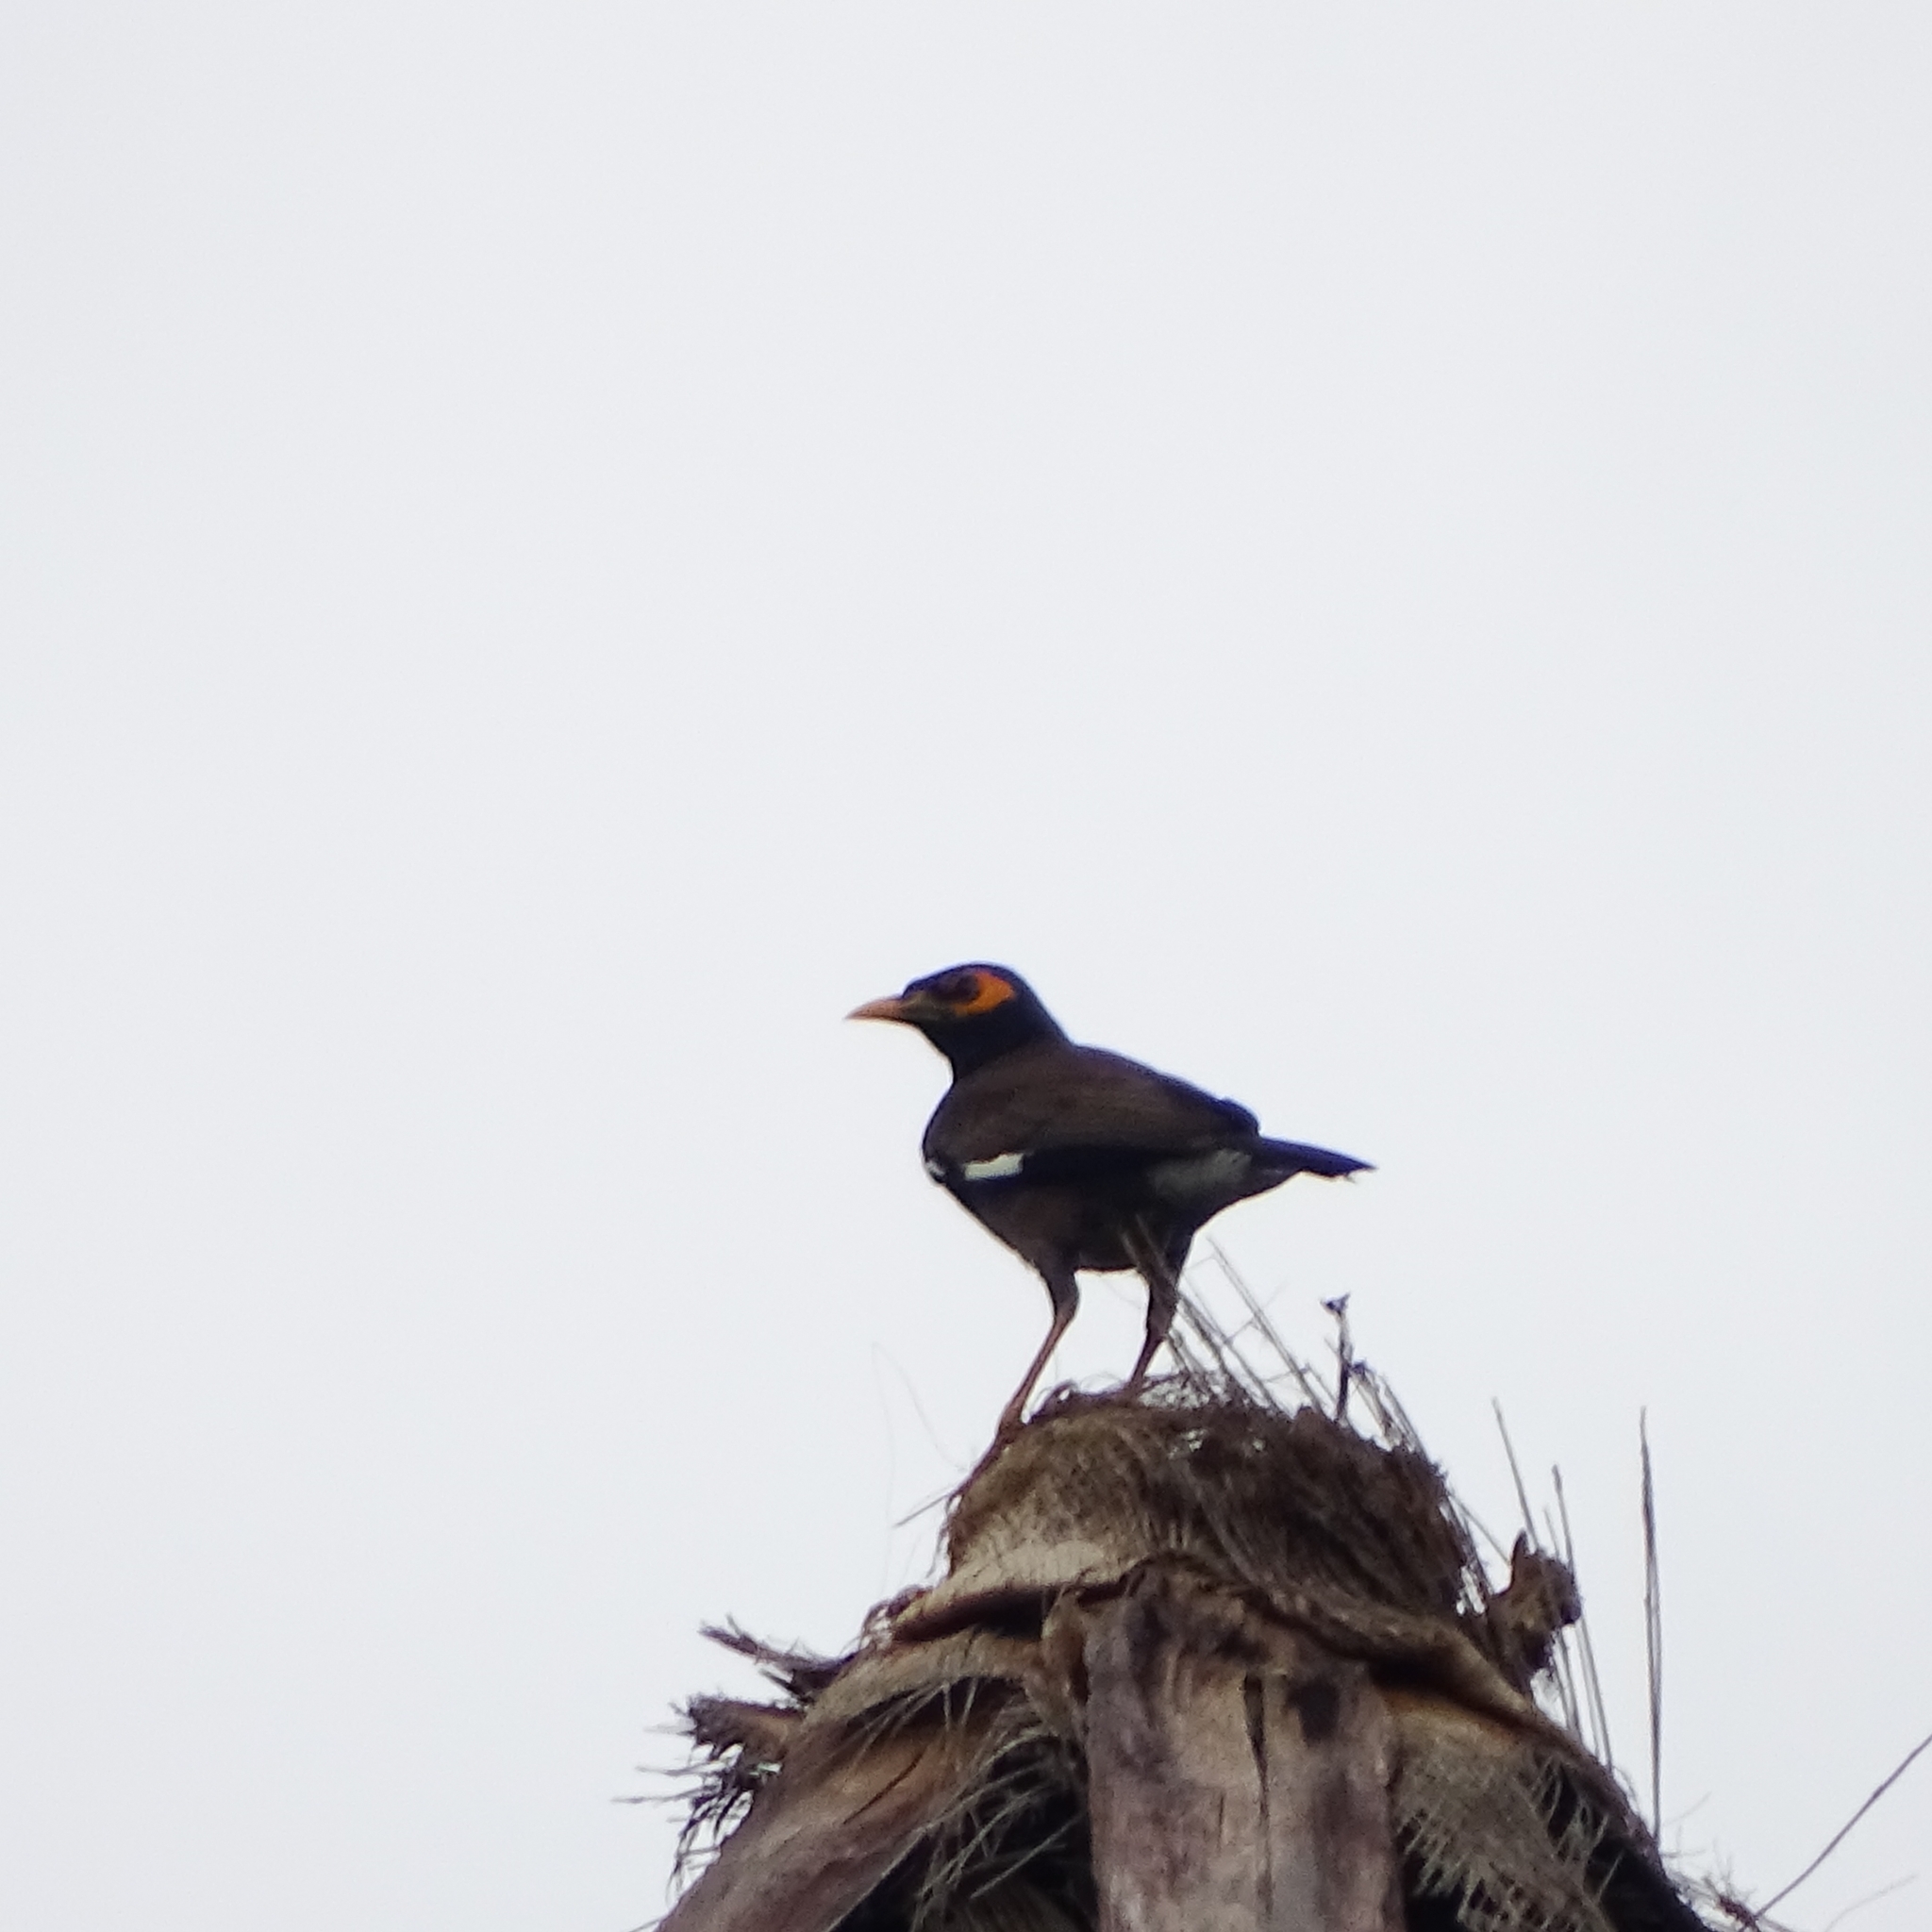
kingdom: Animalia
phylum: Chordata
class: Aves
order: Passeriformes
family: Sturnidae
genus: Acridotheres
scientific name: Acridotheres tristis
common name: Common myna
